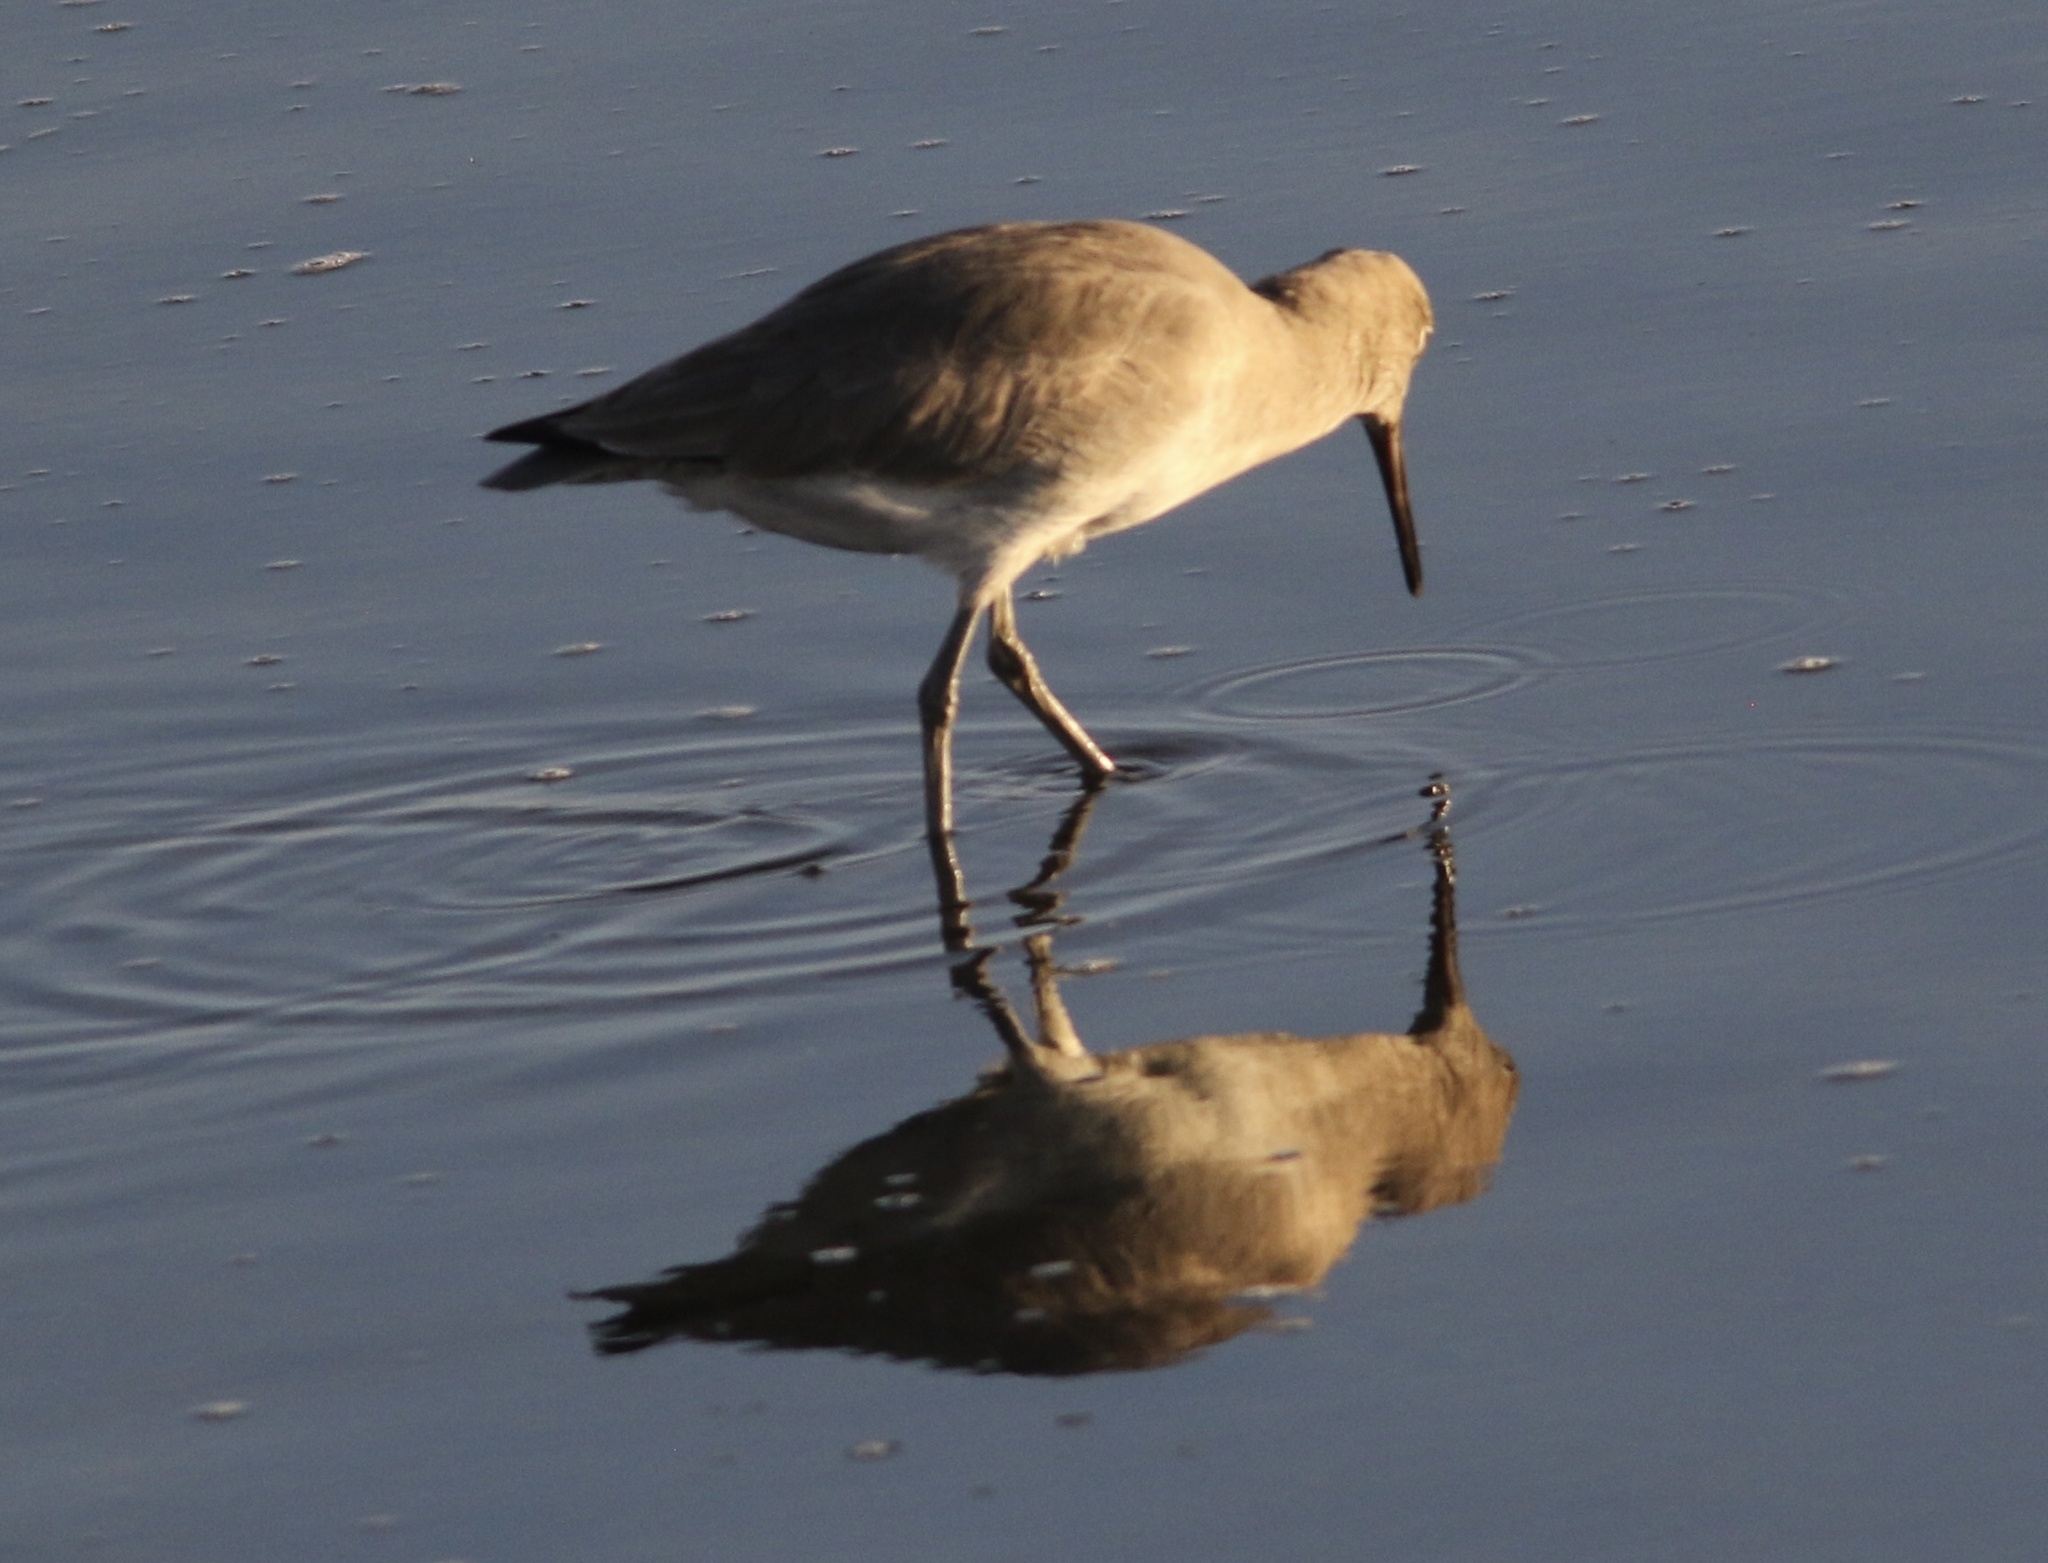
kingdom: Animalia
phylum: Chordata
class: Aves
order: Charadriiformes
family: Scolopacidae
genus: Tringa
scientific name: Tringa semipalmata
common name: Willet
